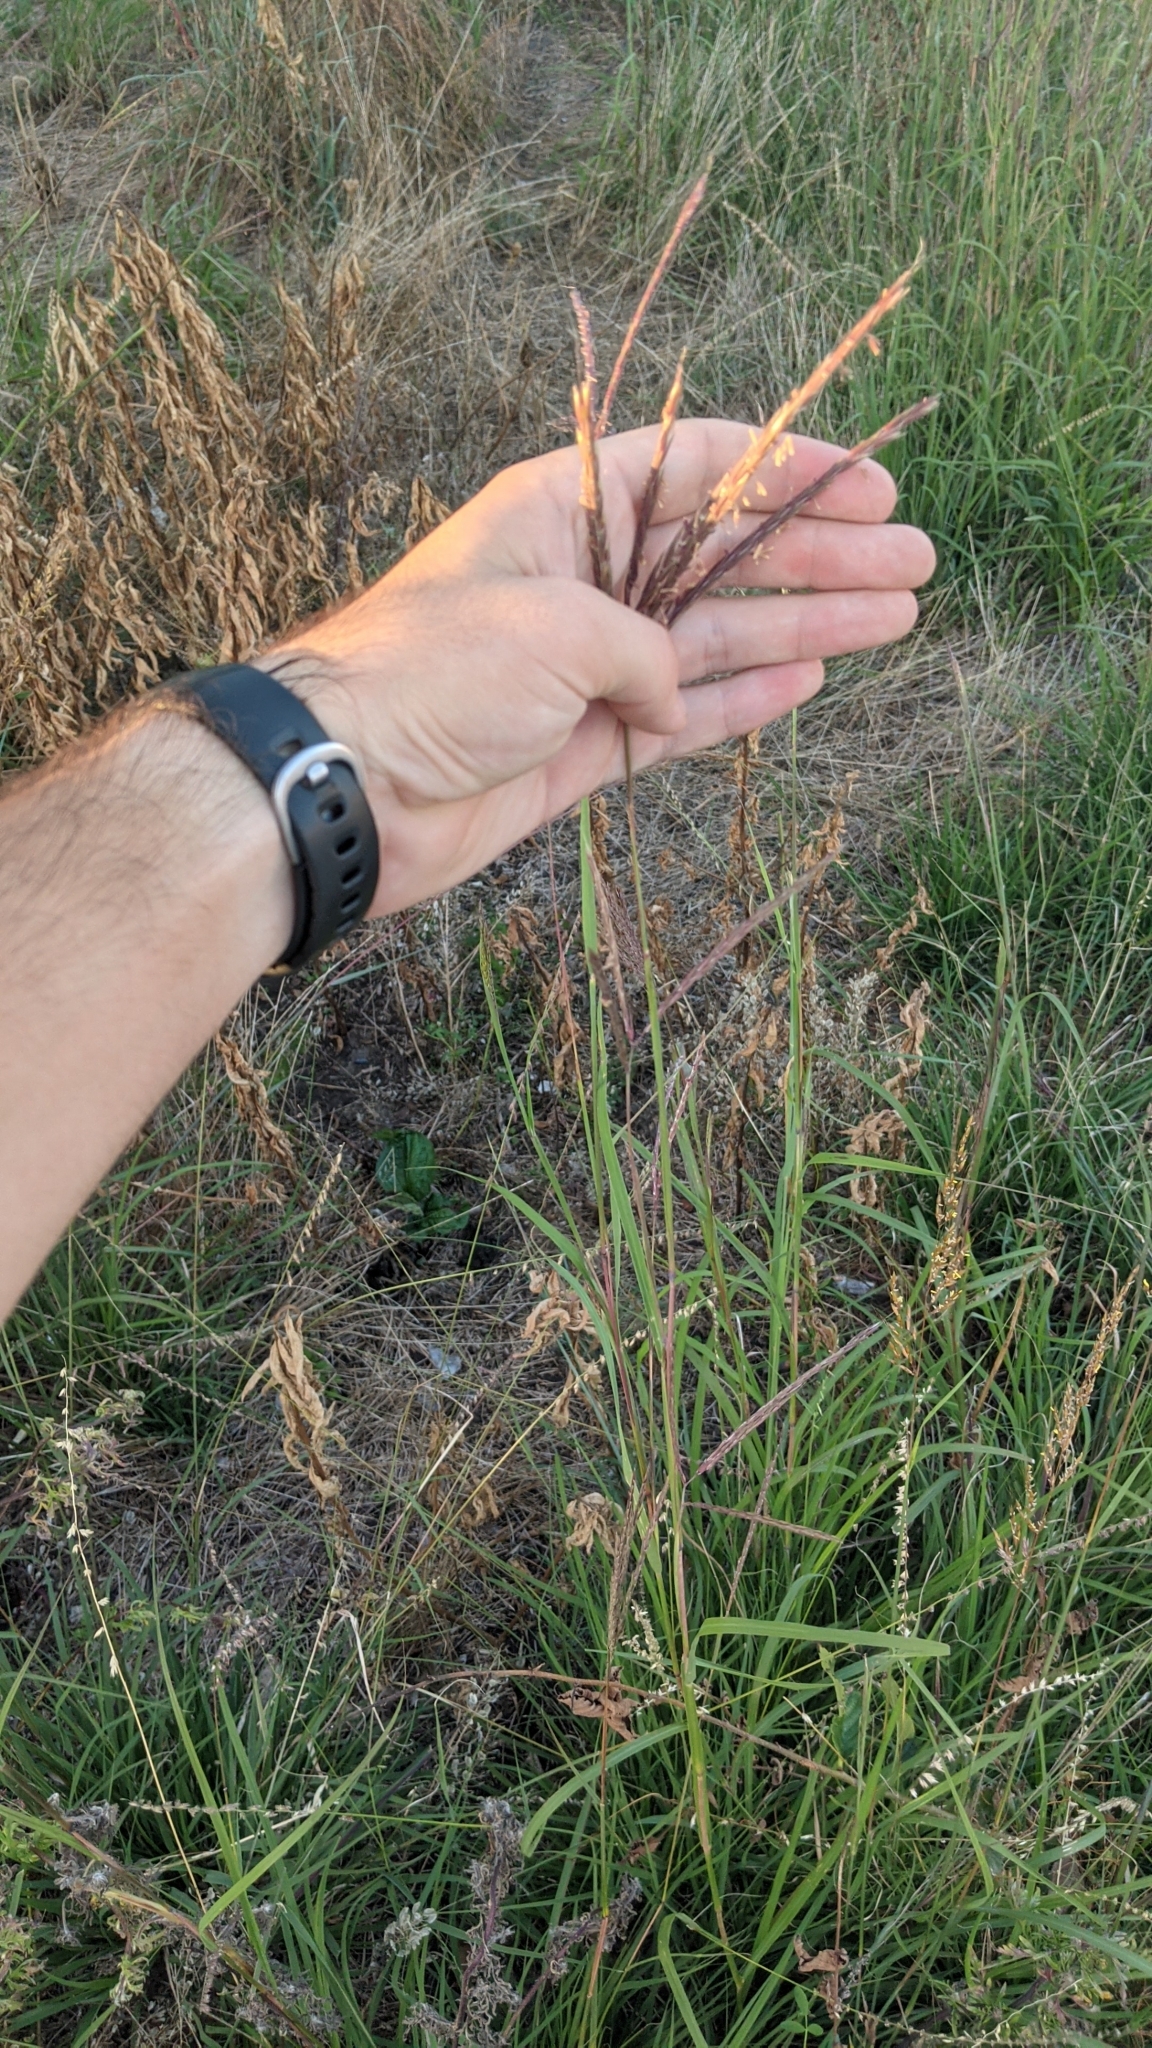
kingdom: Plantae
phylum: Tracheophyta
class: Liliopsida
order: Poales
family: Poaceae
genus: Andropogon
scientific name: Andropogon gerardi
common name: Big bluestem
